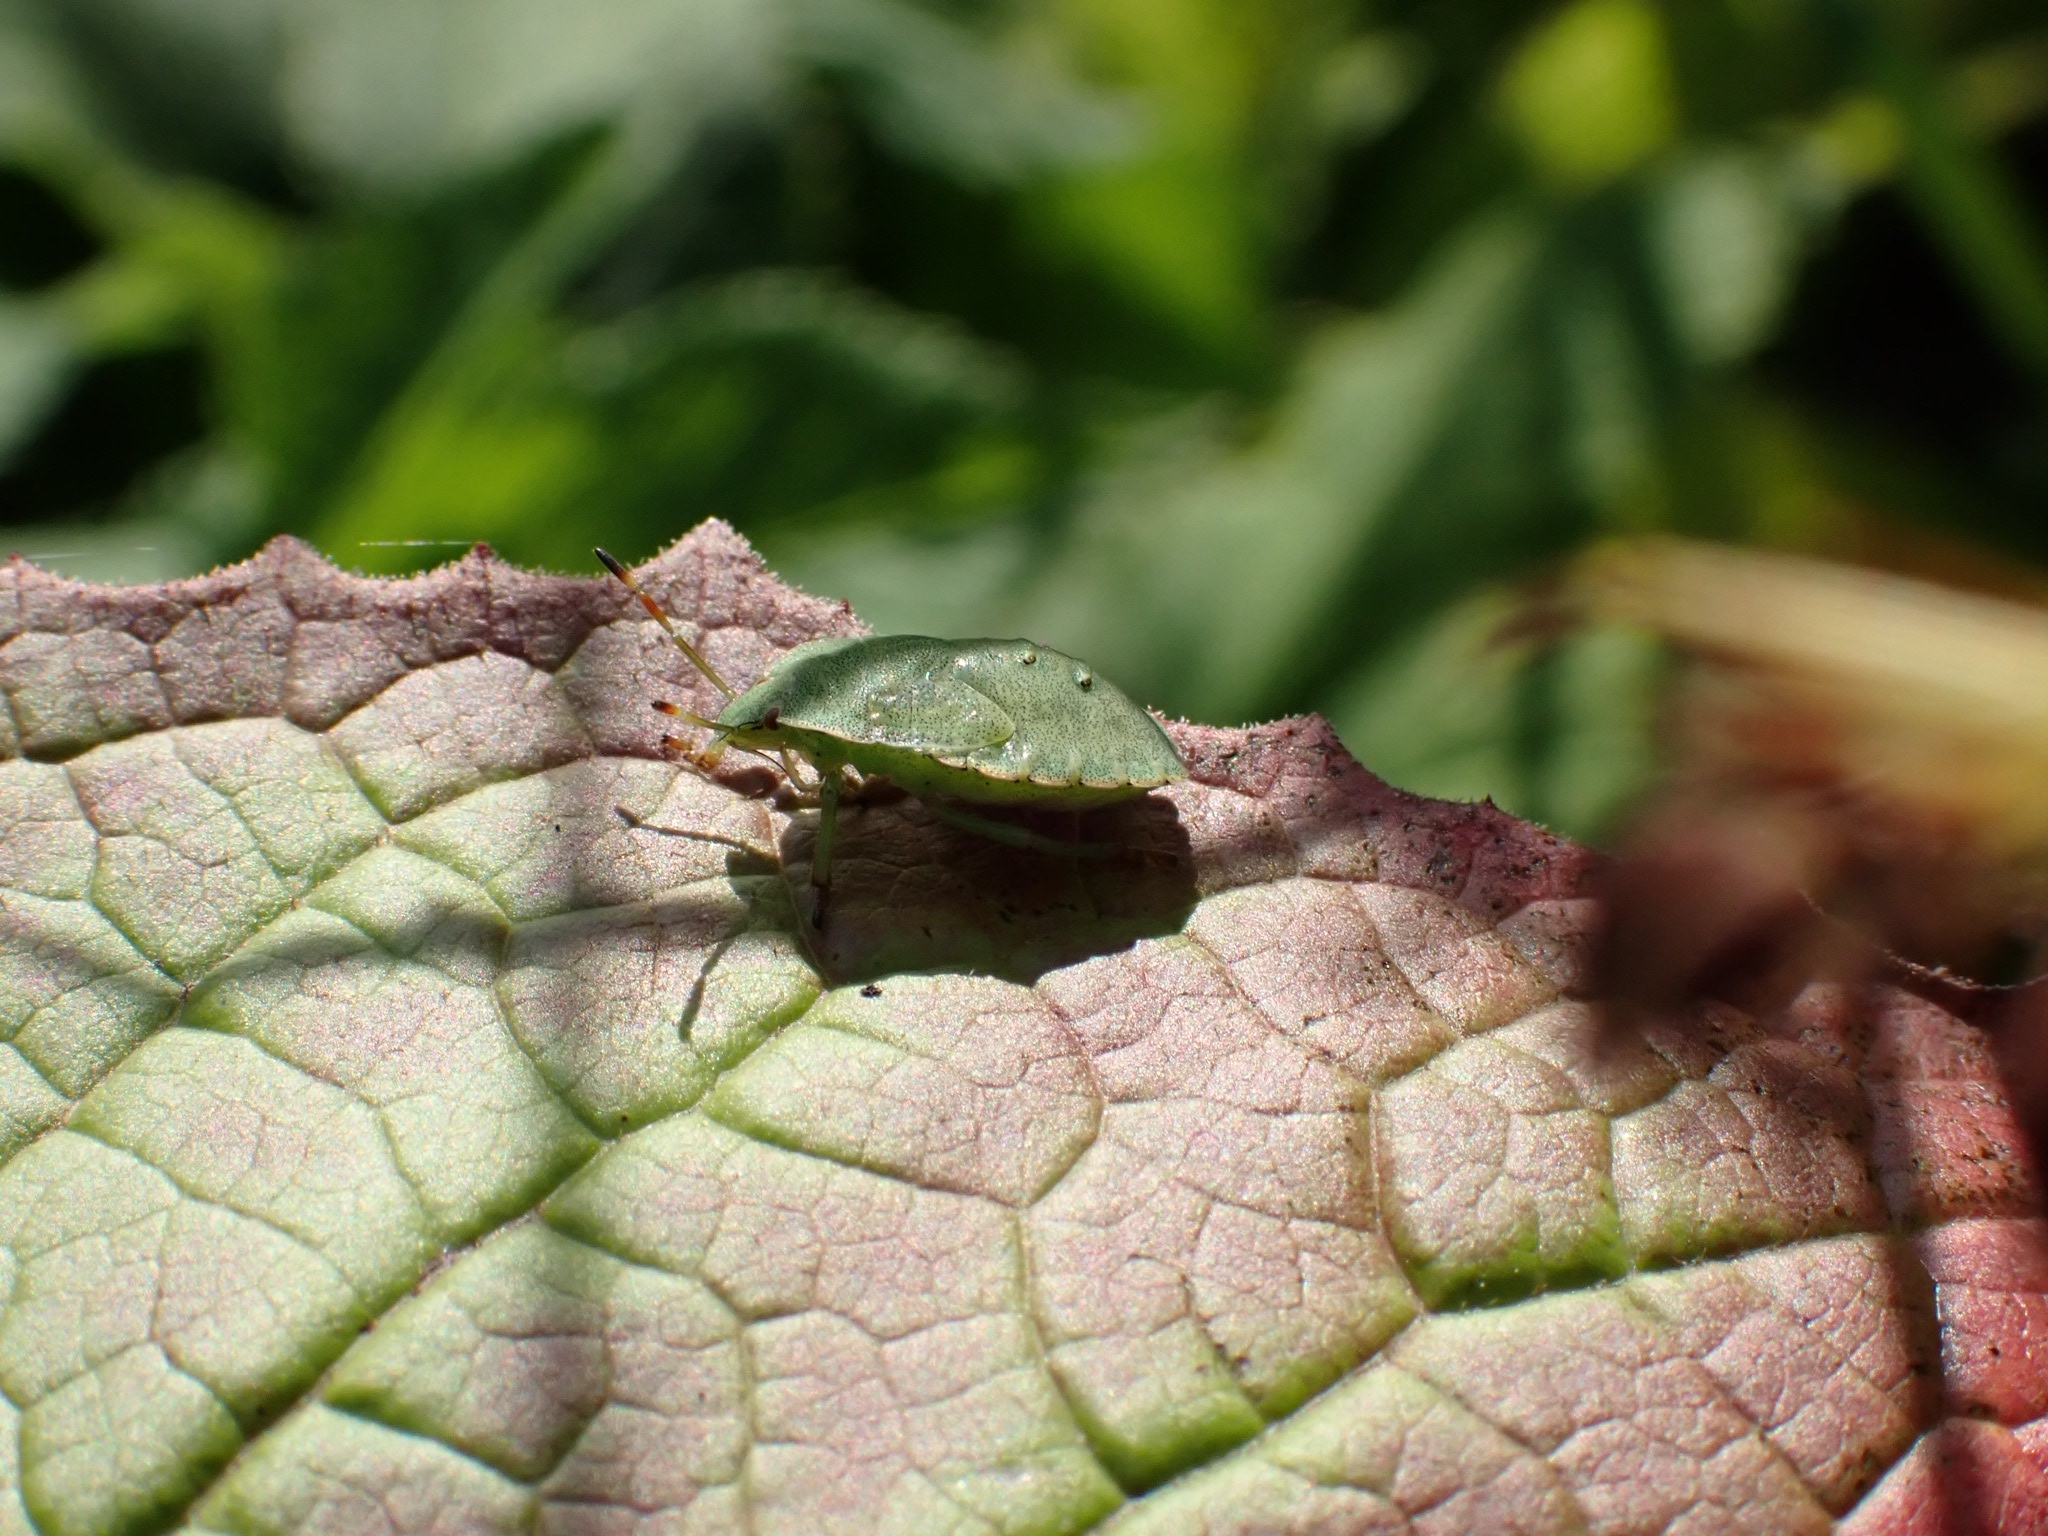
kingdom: Animalia
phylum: Arthropoda
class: Insecta
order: Hemiptera
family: Pentatomidae
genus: Palomena
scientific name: Palomena prasina
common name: Green shieldbug
